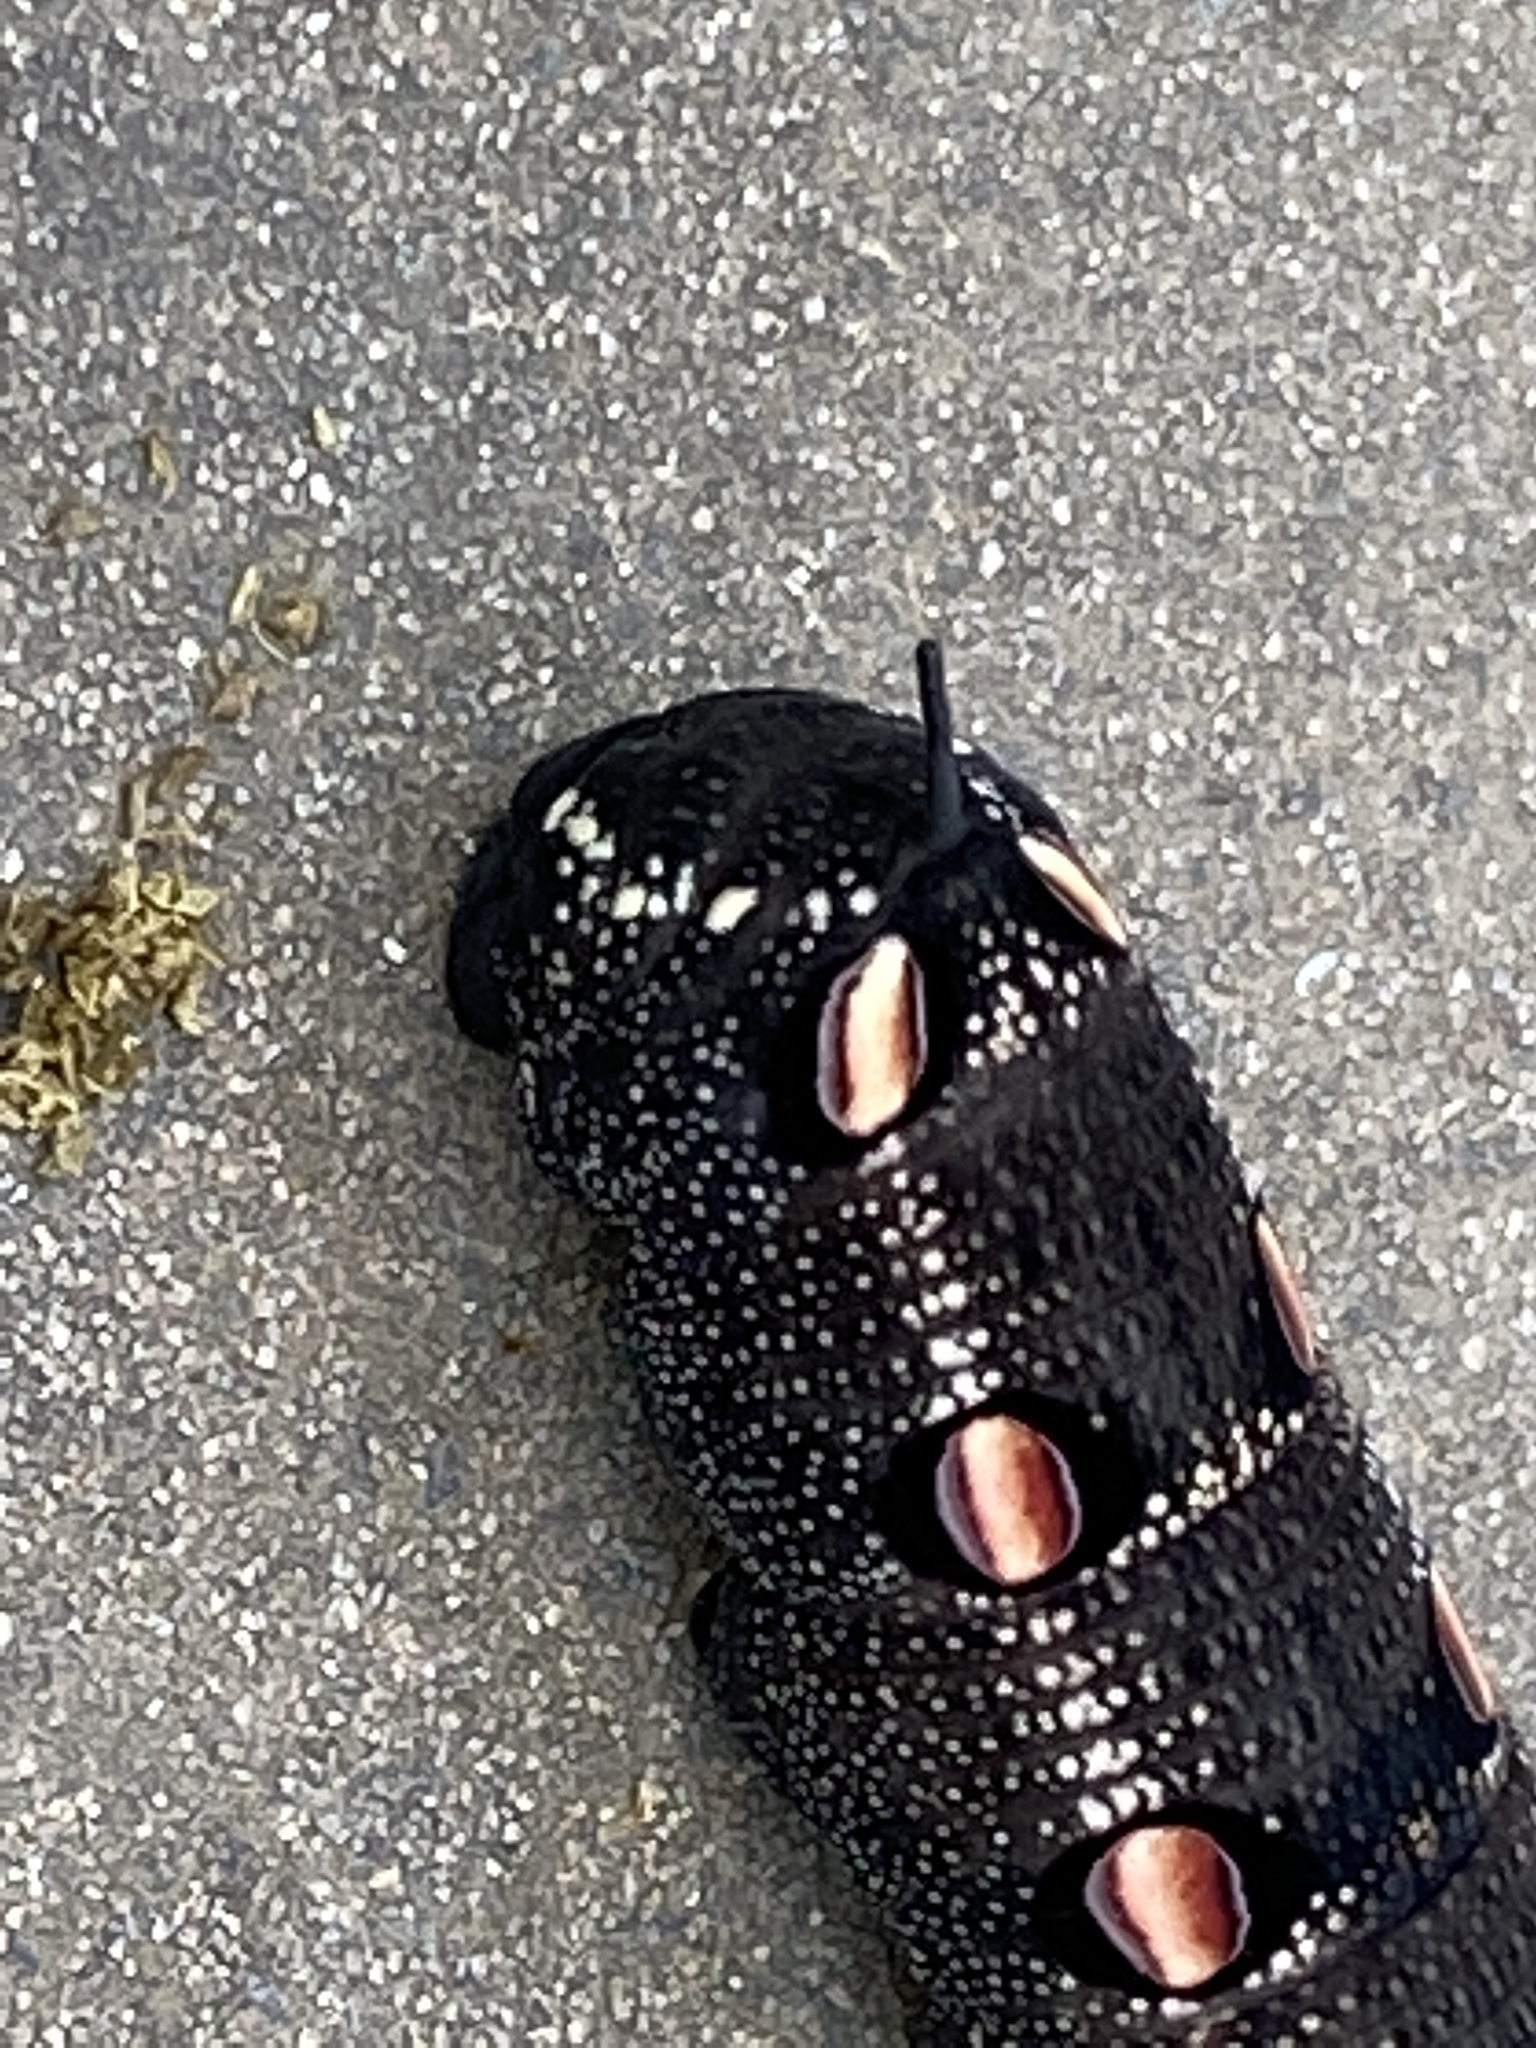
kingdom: Animalia
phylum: Arthropoda
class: Insecta
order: Lepidoptera
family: Sphingidae
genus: Theretra
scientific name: Theretra oldenlandiae
